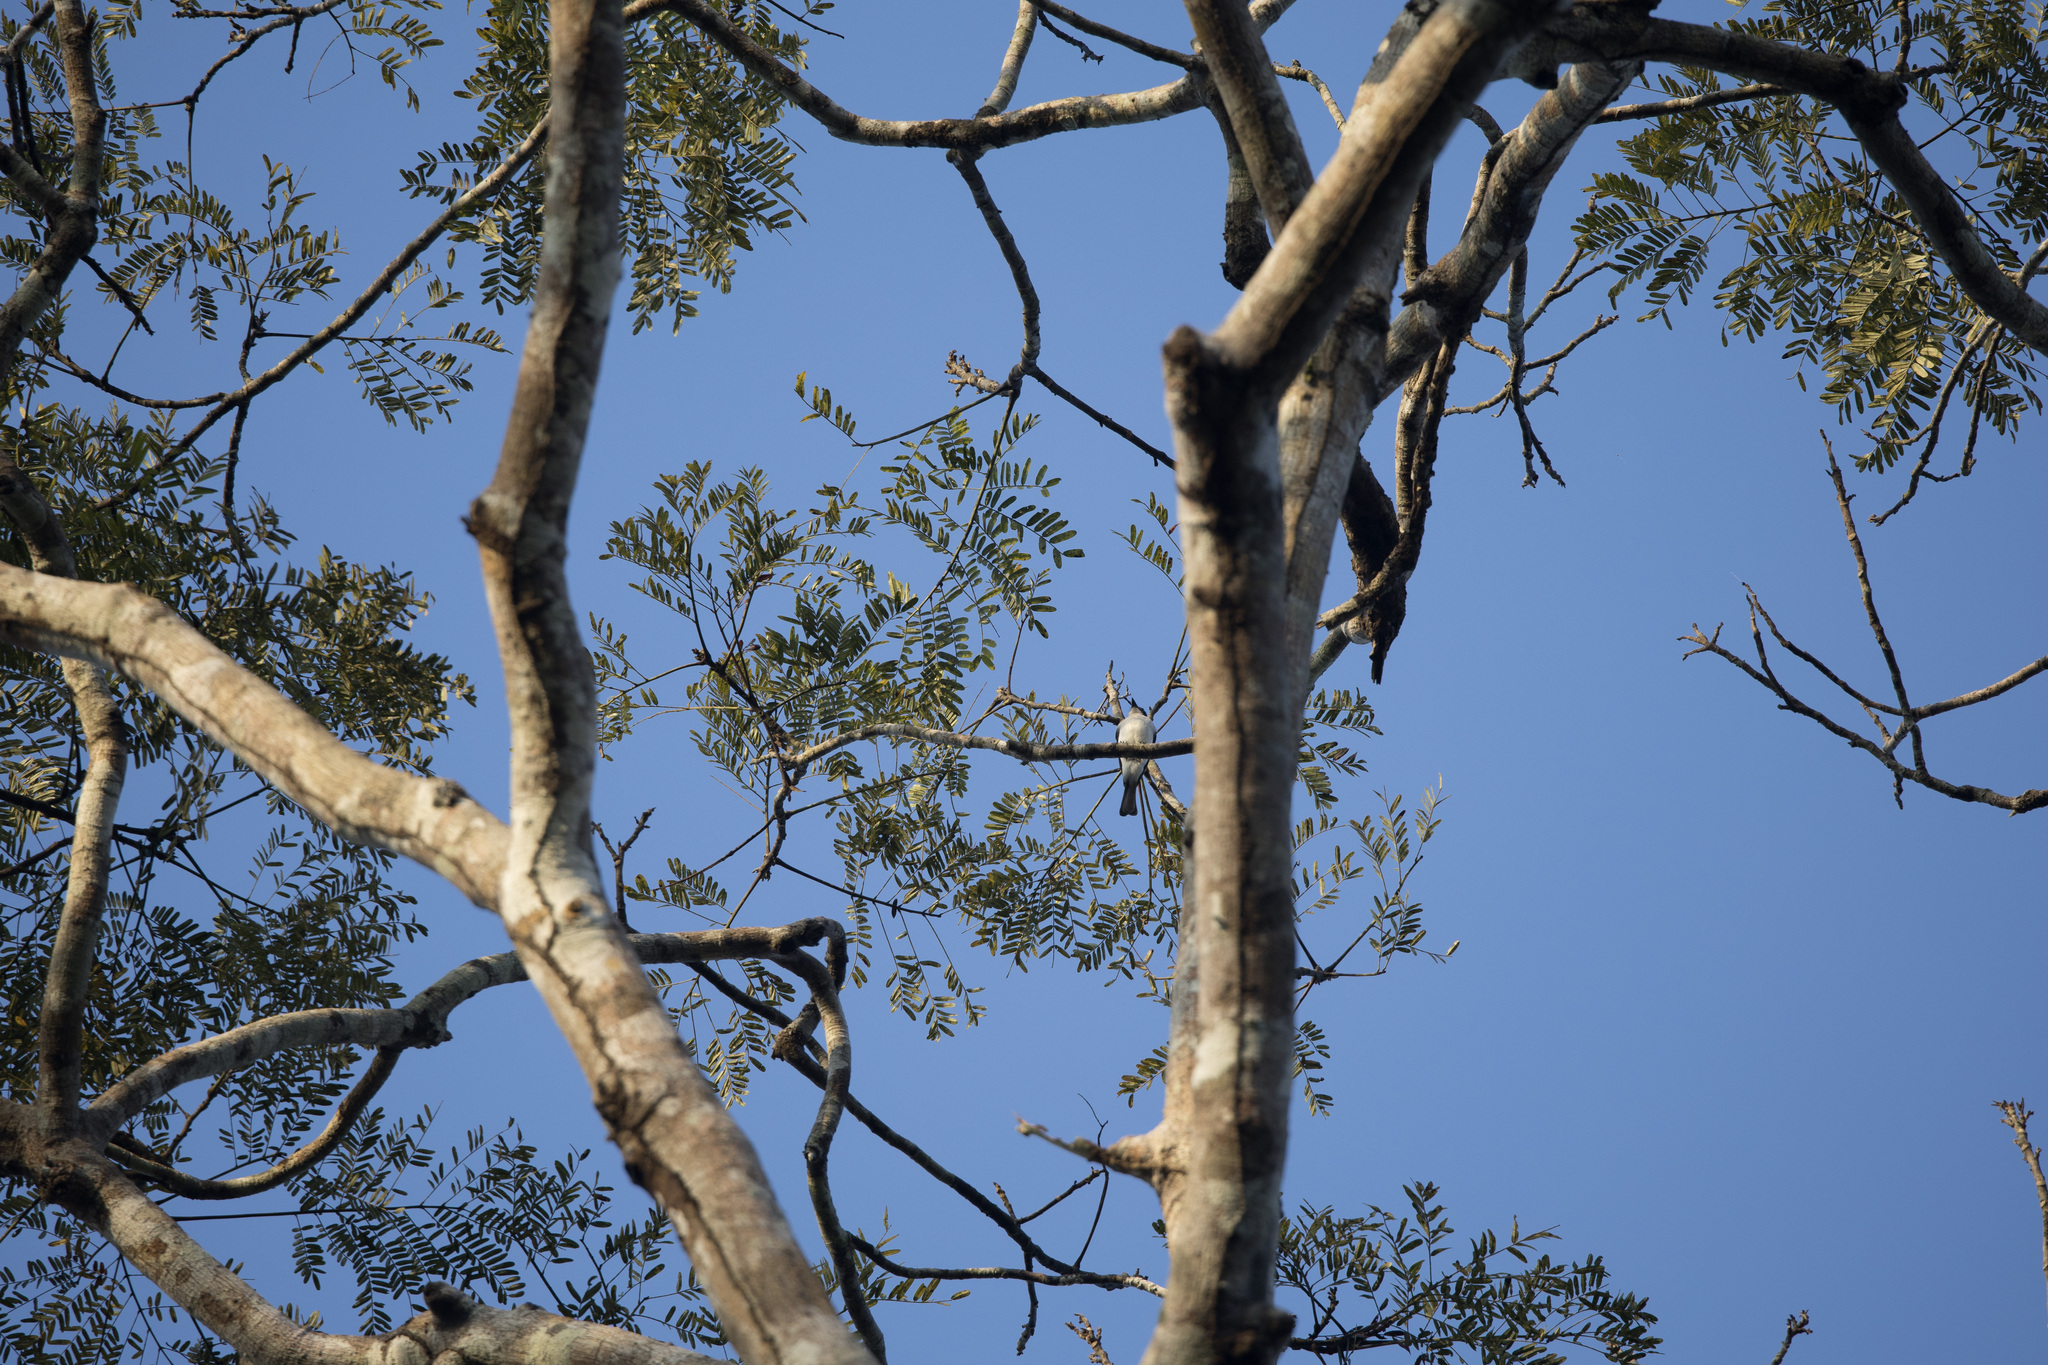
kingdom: Animalia
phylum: Chordata
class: Aves
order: Passeriformes
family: Cotingidae
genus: Tityra
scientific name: Tityra inquisitor
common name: Black-crowned tityra
